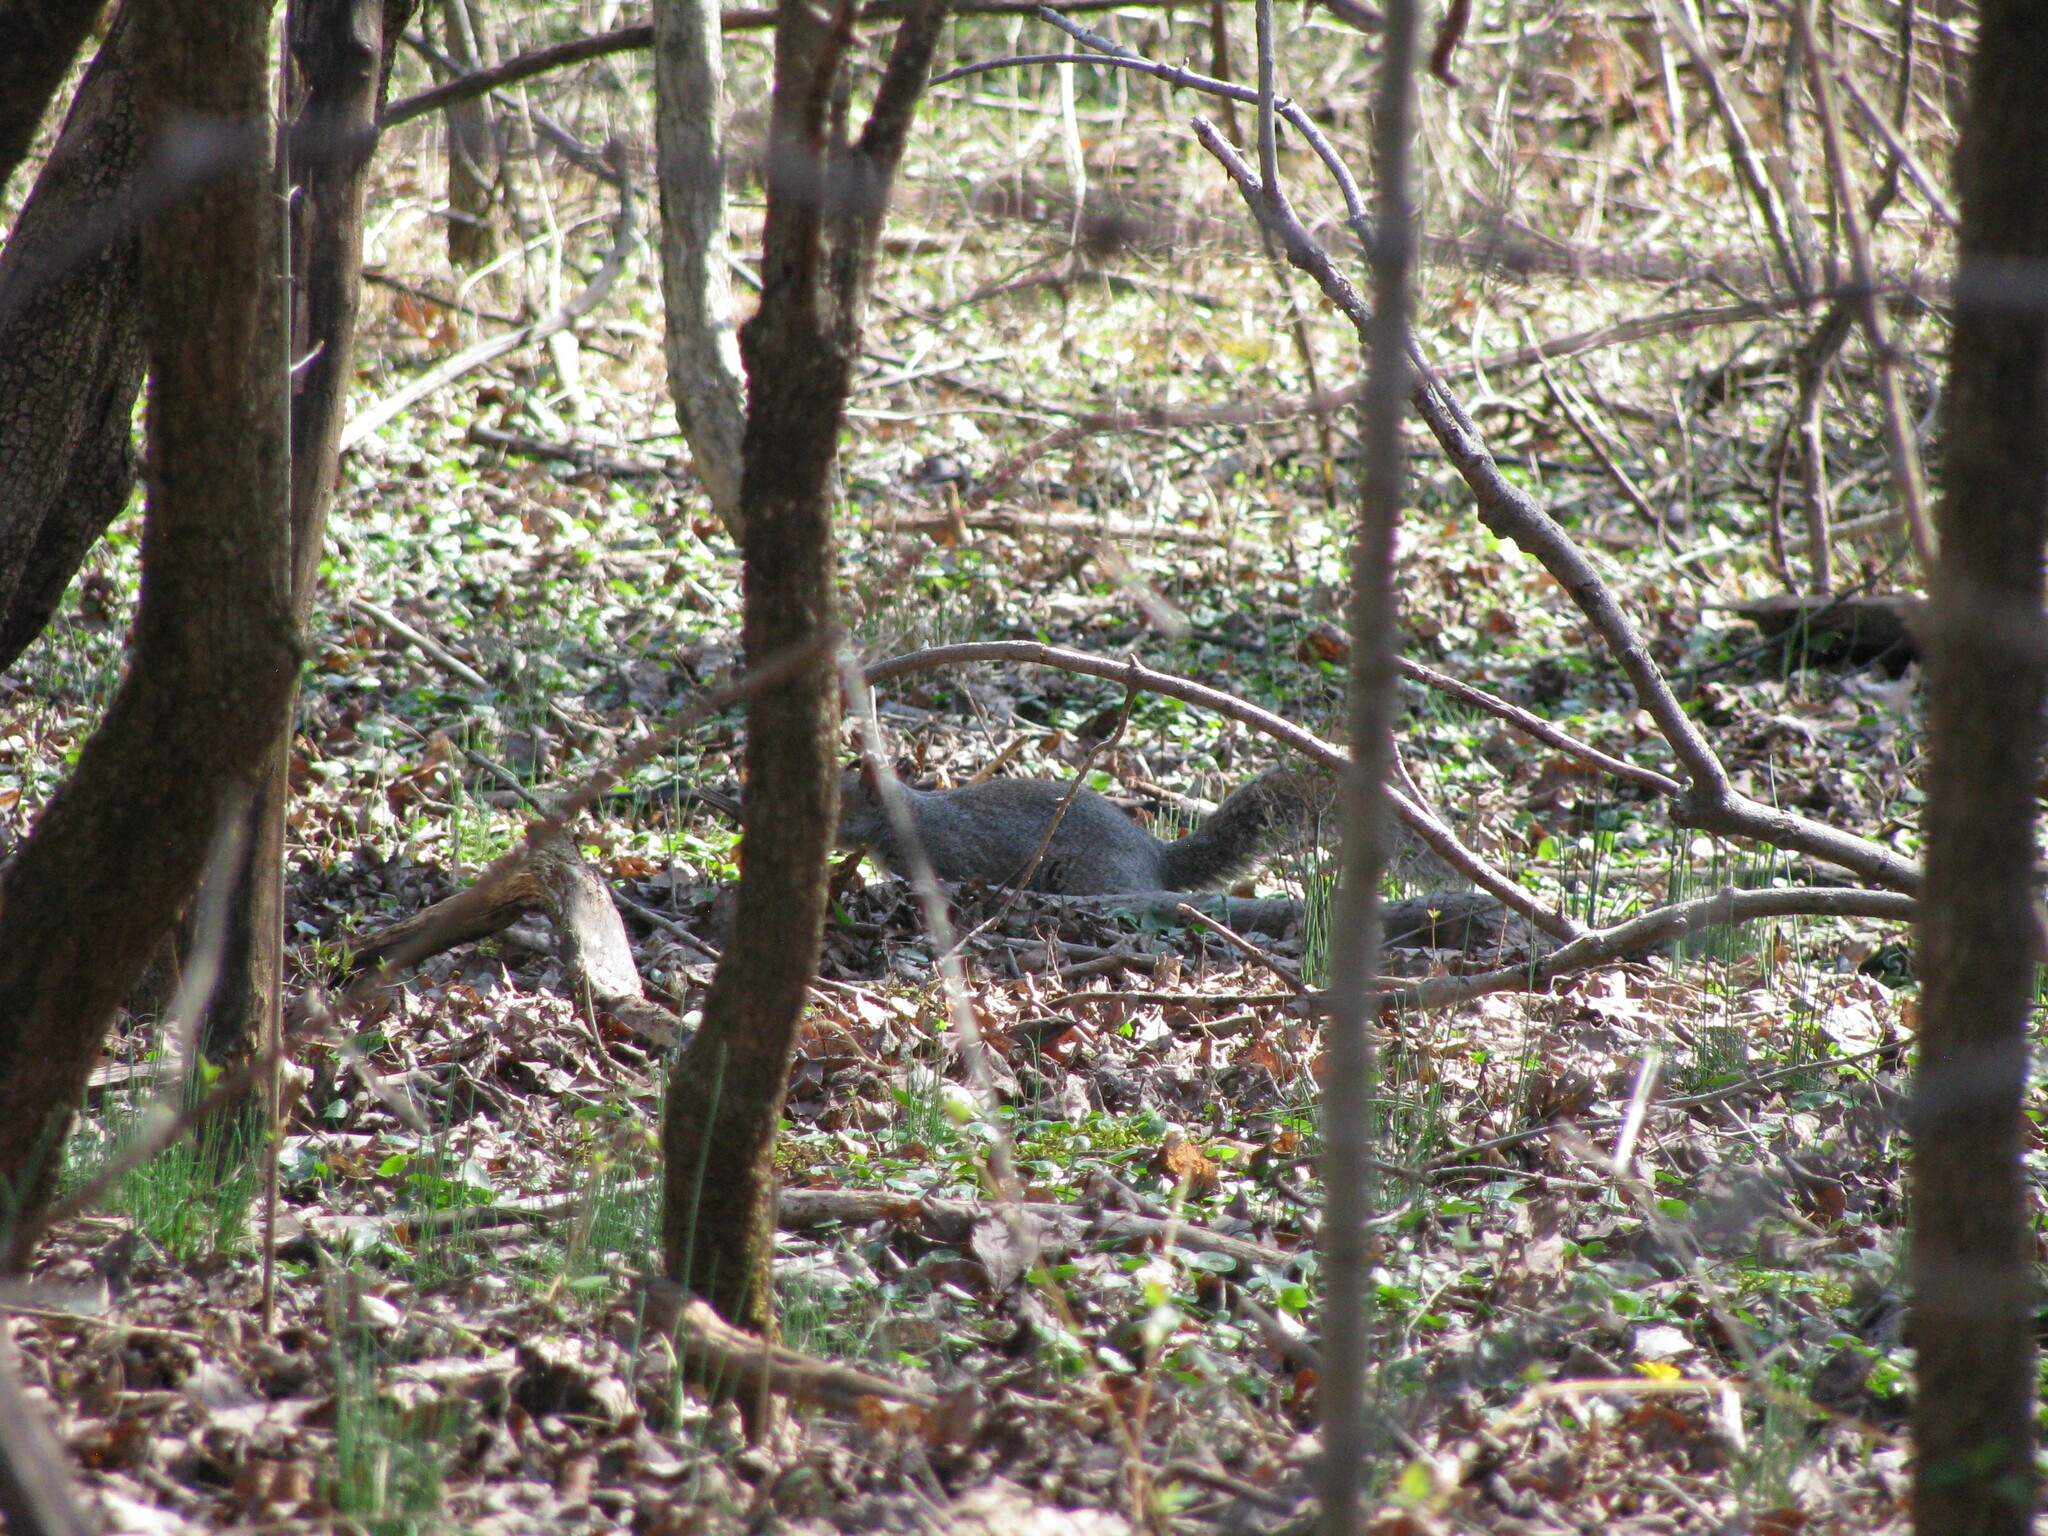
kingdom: Animalia
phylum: Chordata
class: Mammalia
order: Rodentia
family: Sciuridae
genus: Sciurus
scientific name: Sciurus carolinensis
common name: Eastern gray squirrel
